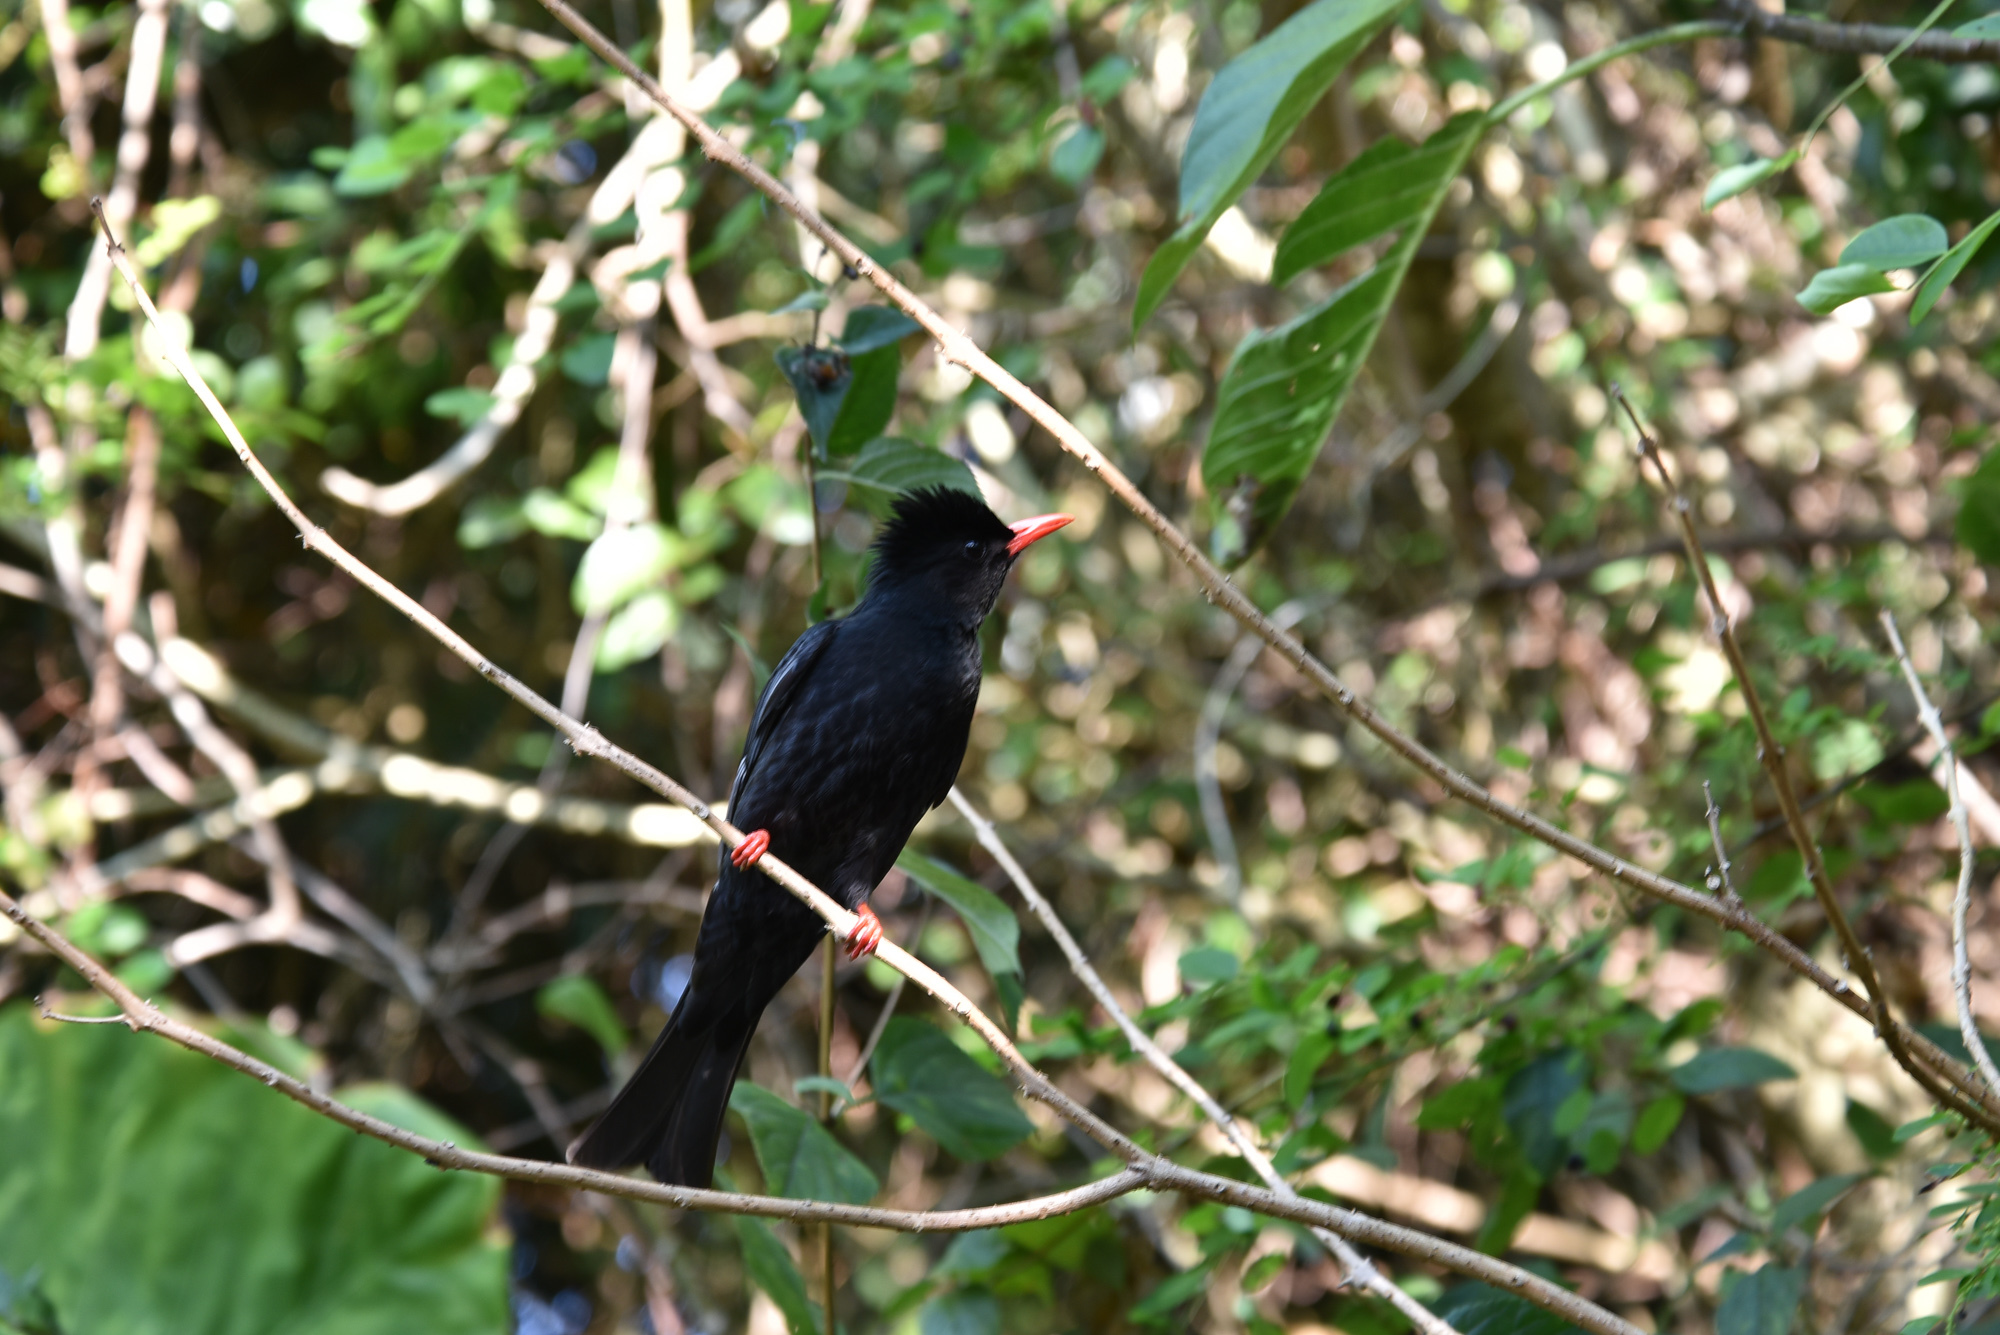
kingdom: Animalia
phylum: Chordata
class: Aves
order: Passeriformes
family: Pycnonotidae
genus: Hypsipetes
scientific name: Hypsipetes leucocephalus
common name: Black bulbul
